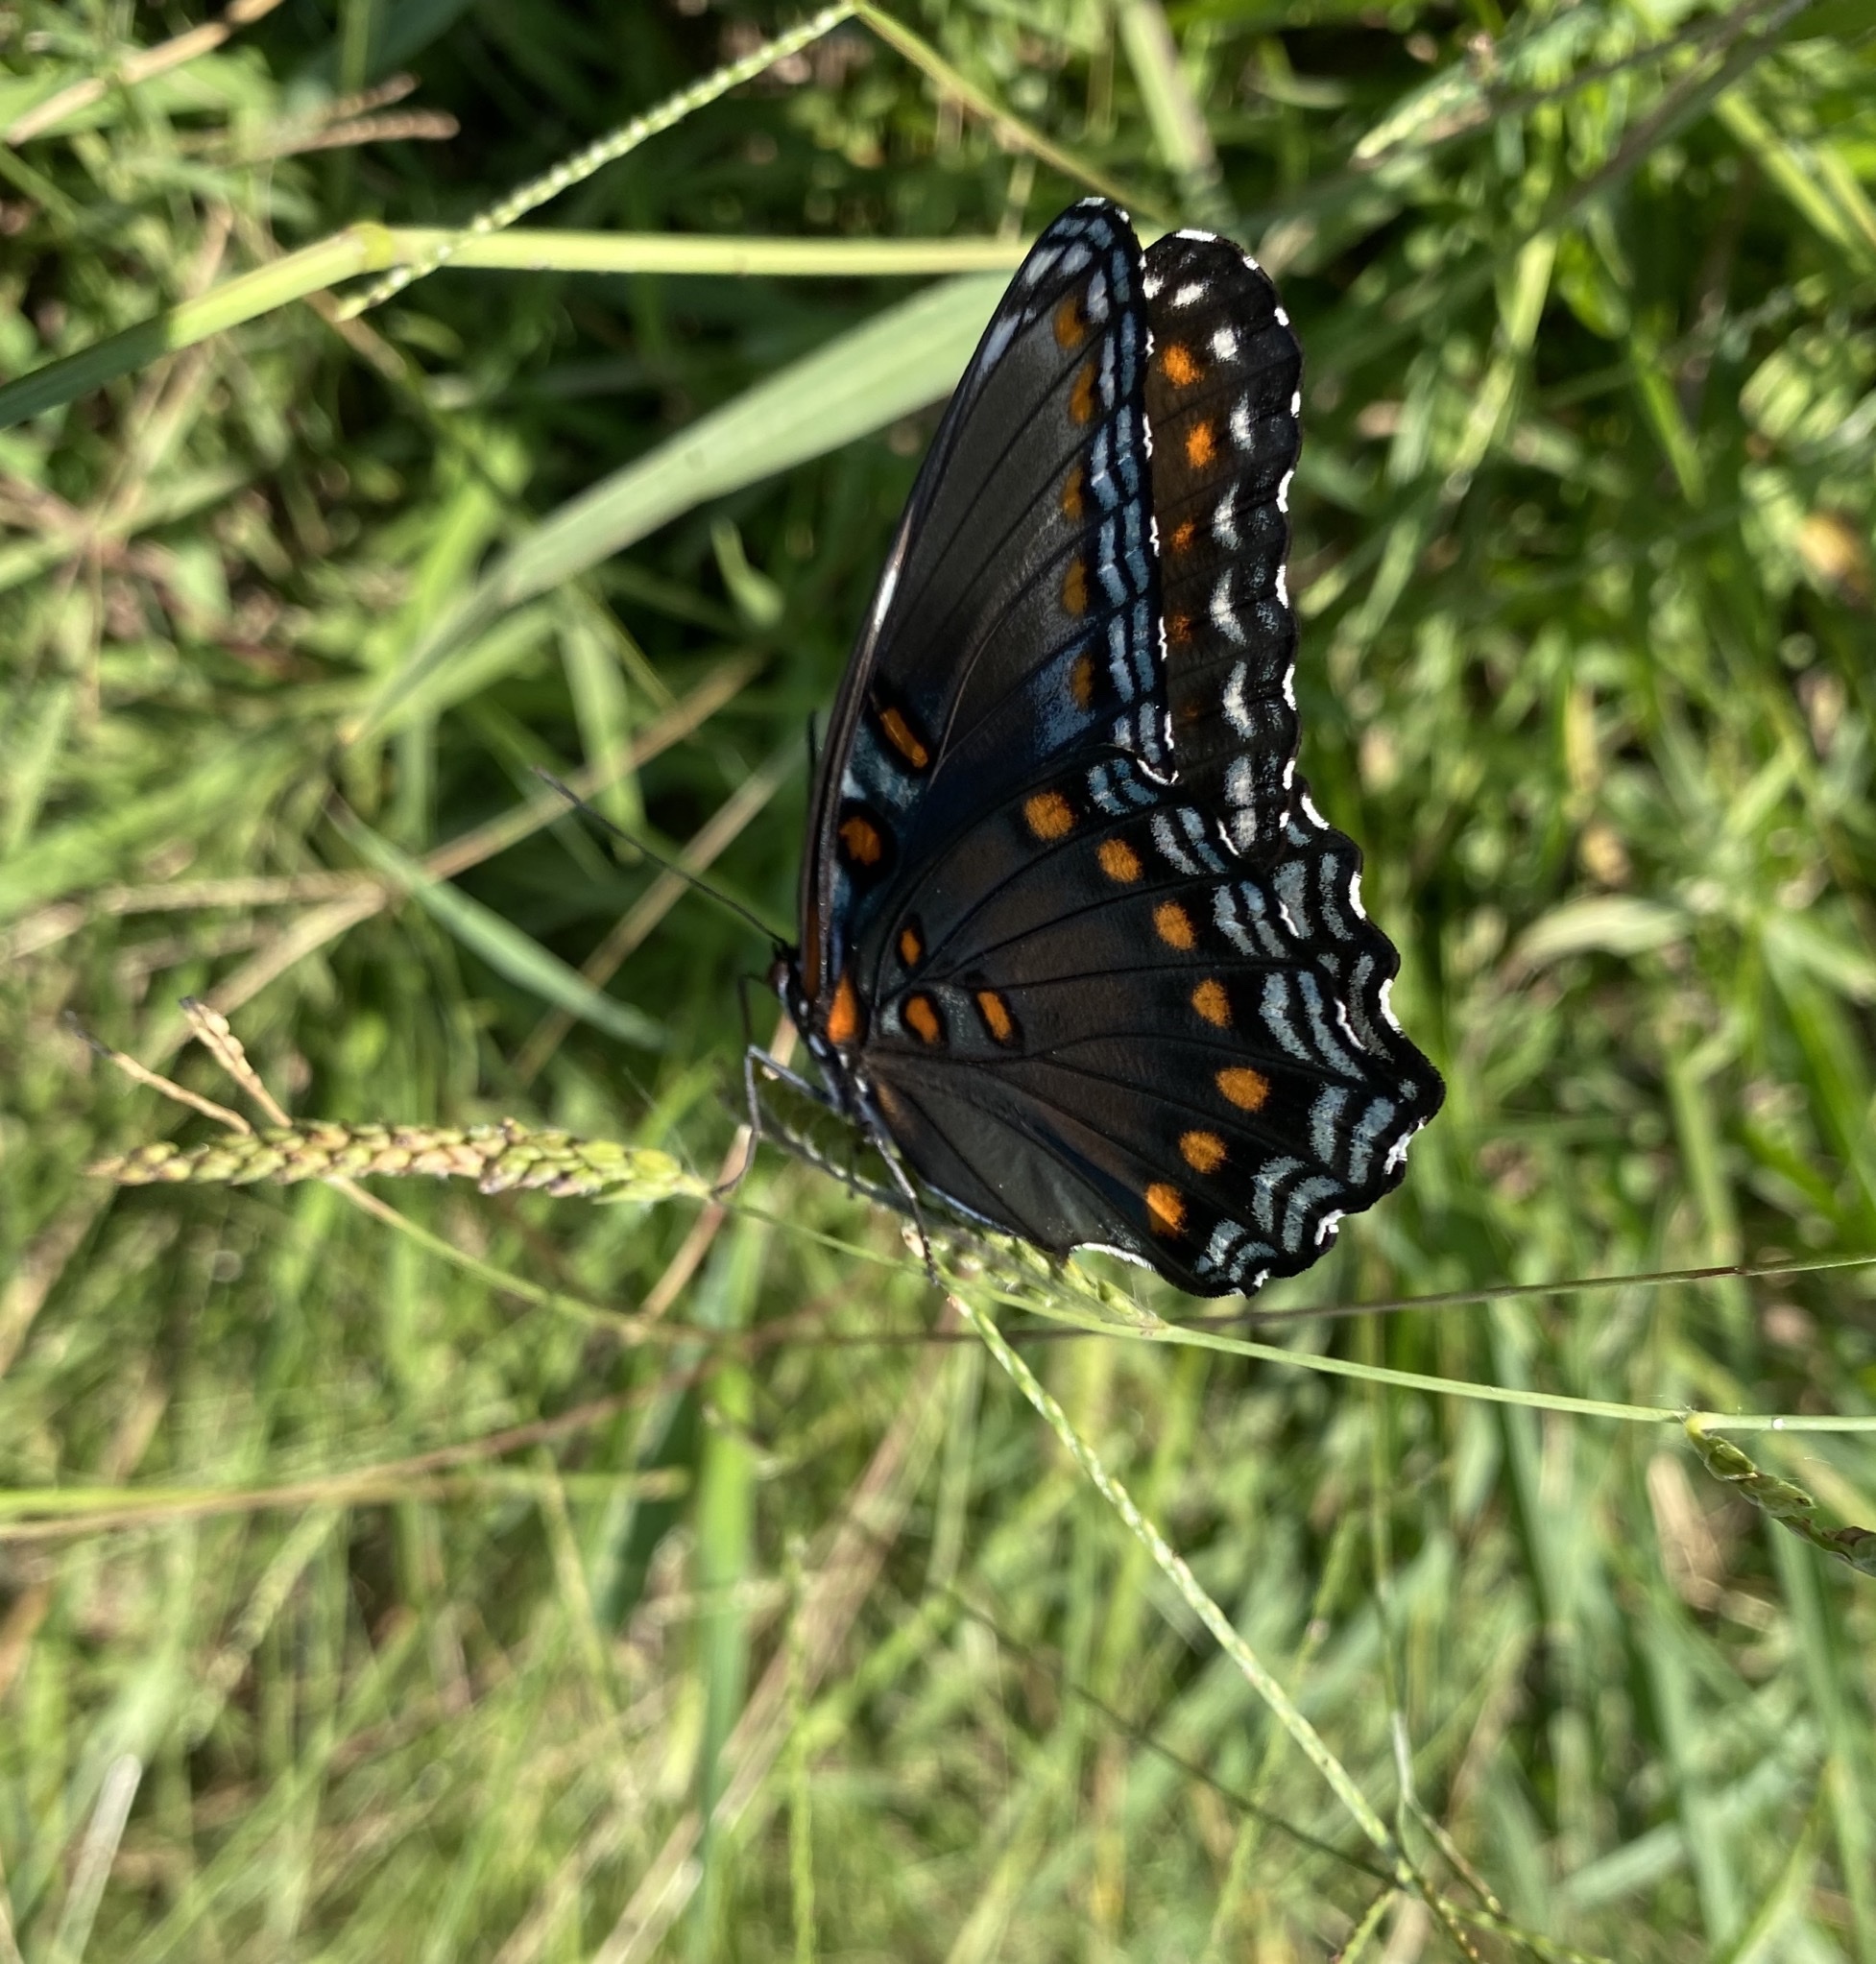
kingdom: Animalia
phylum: Arthropoda
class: Insecta
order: Lepidoptera
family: Nymphalidae
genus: Limenitis
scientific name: Limenitis arthemis
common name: Red-spotted admiral
